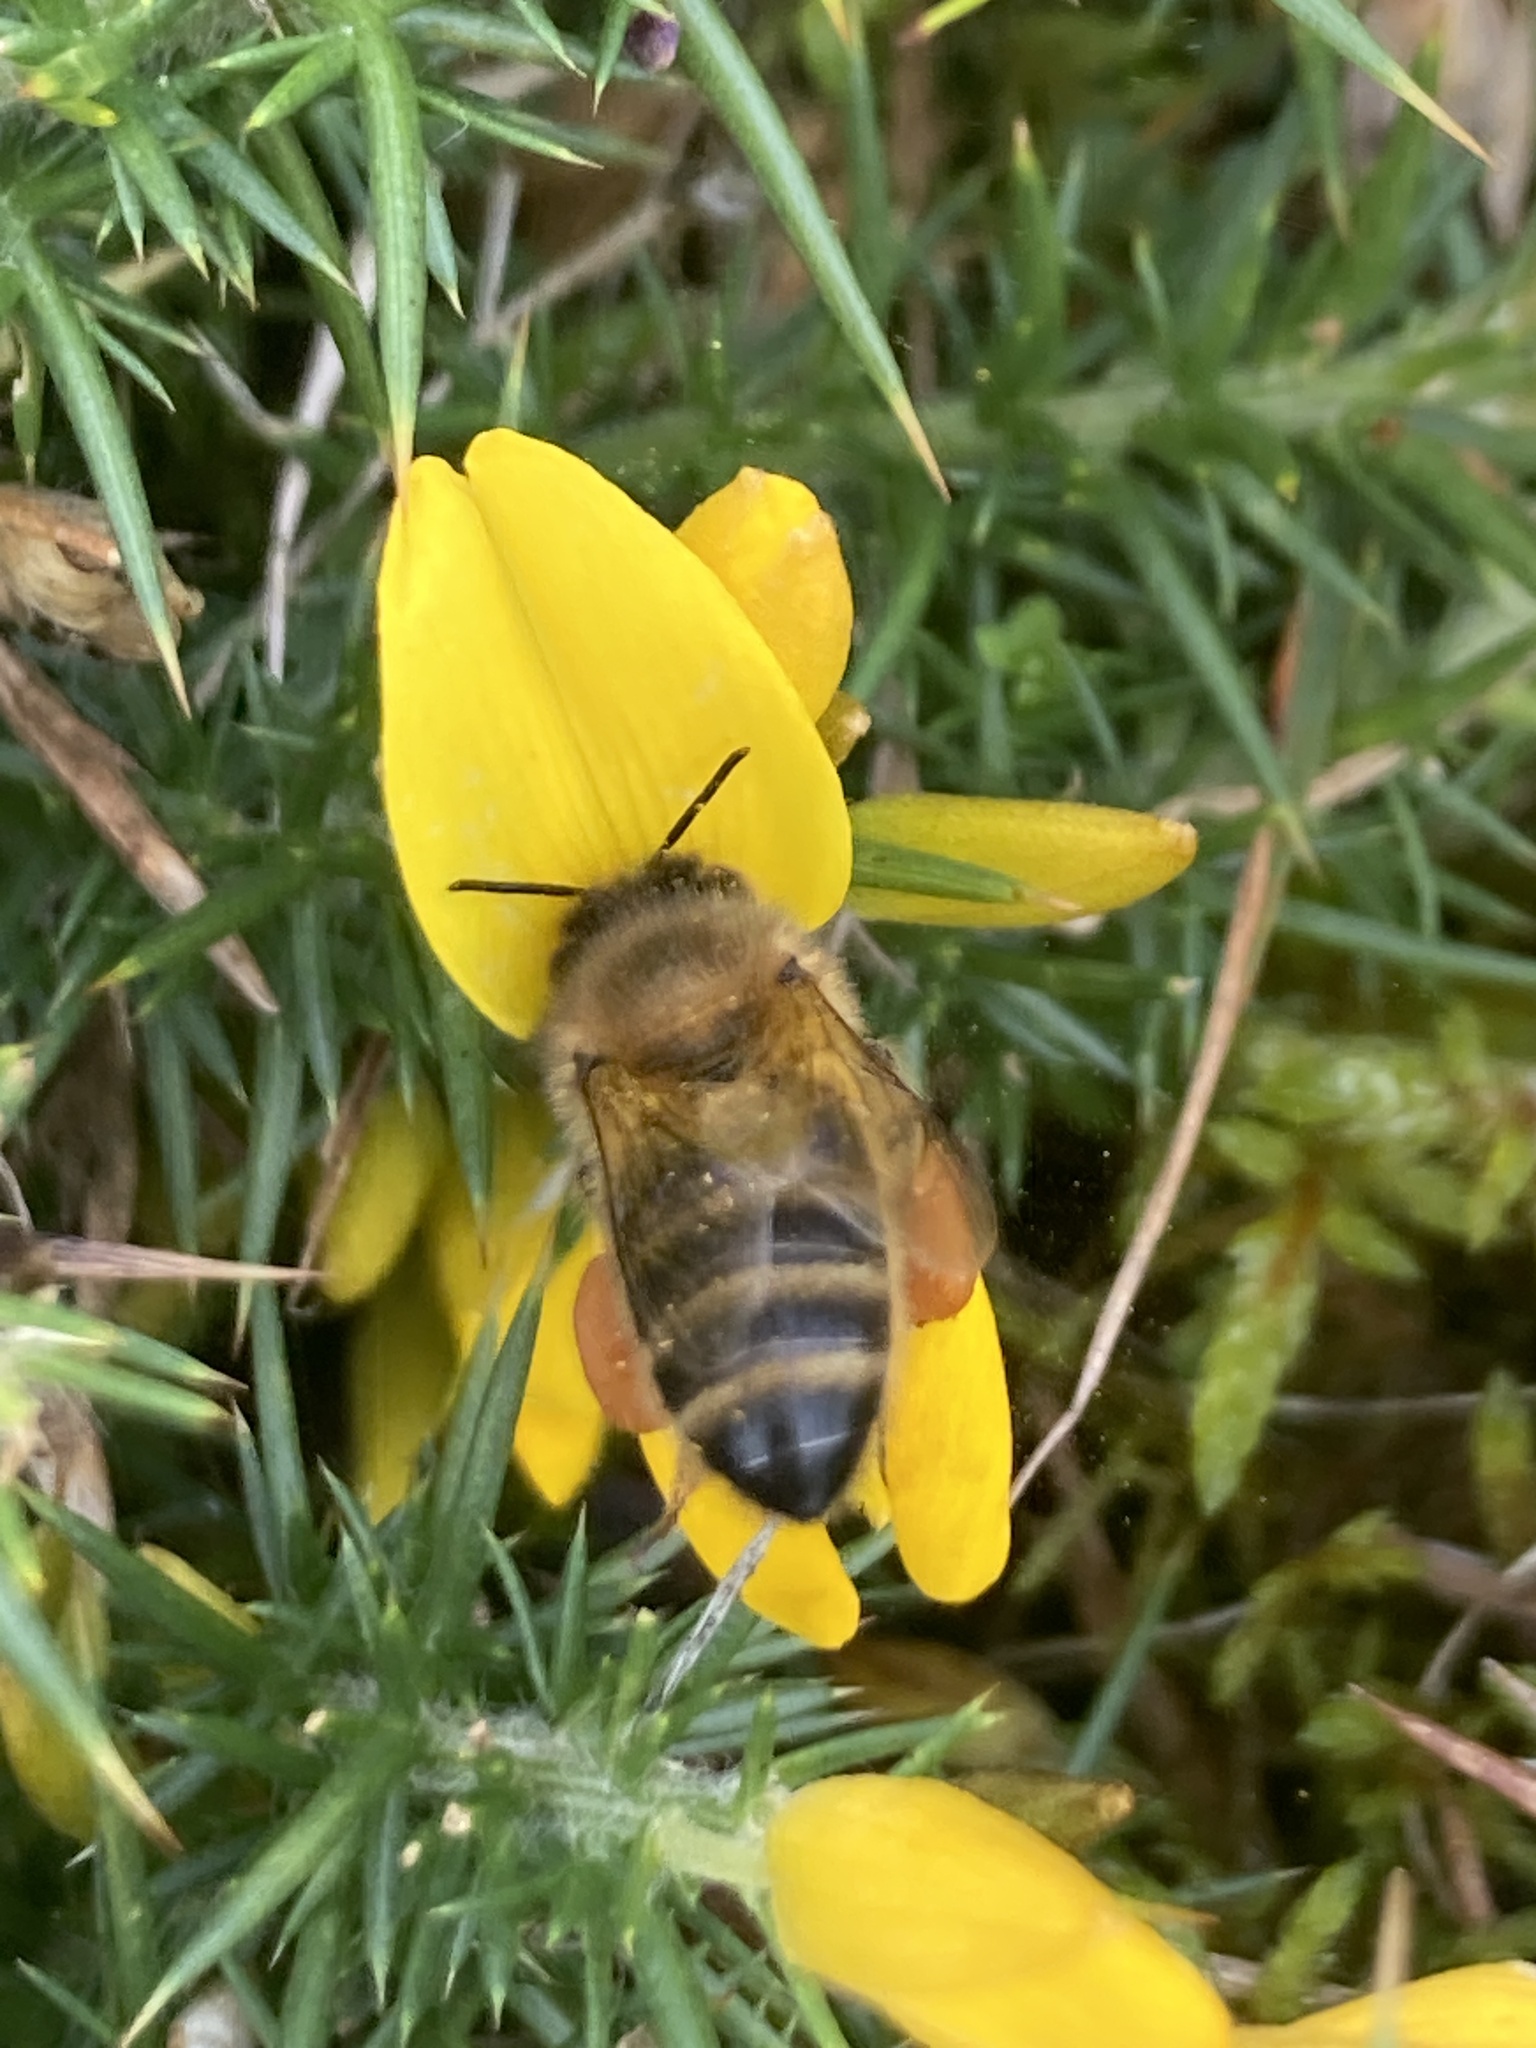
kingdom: Animalia
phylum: Arthropoda
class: Insecta
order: Hymenoptera
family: Apidae
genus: Apis
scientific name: Apis mellifera
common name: Honey bee
